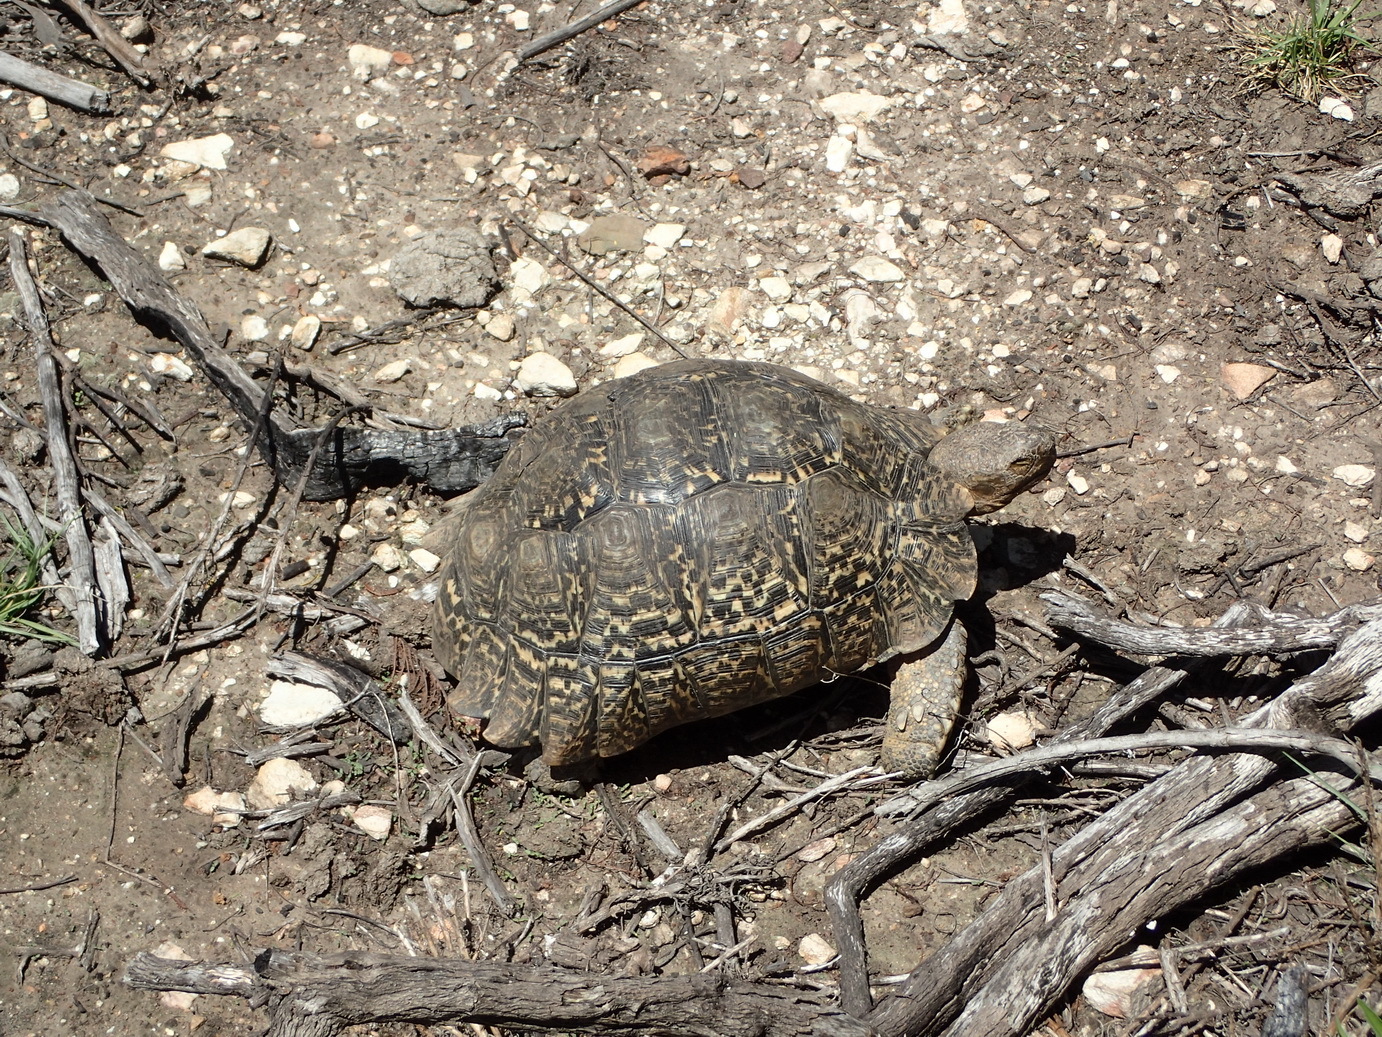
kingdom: Animalia
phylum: Chordata
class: Testudines
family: Testudinidae
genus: Stigmochelys
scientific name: Stigmochelys pardalis
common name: Leopard tortoise
